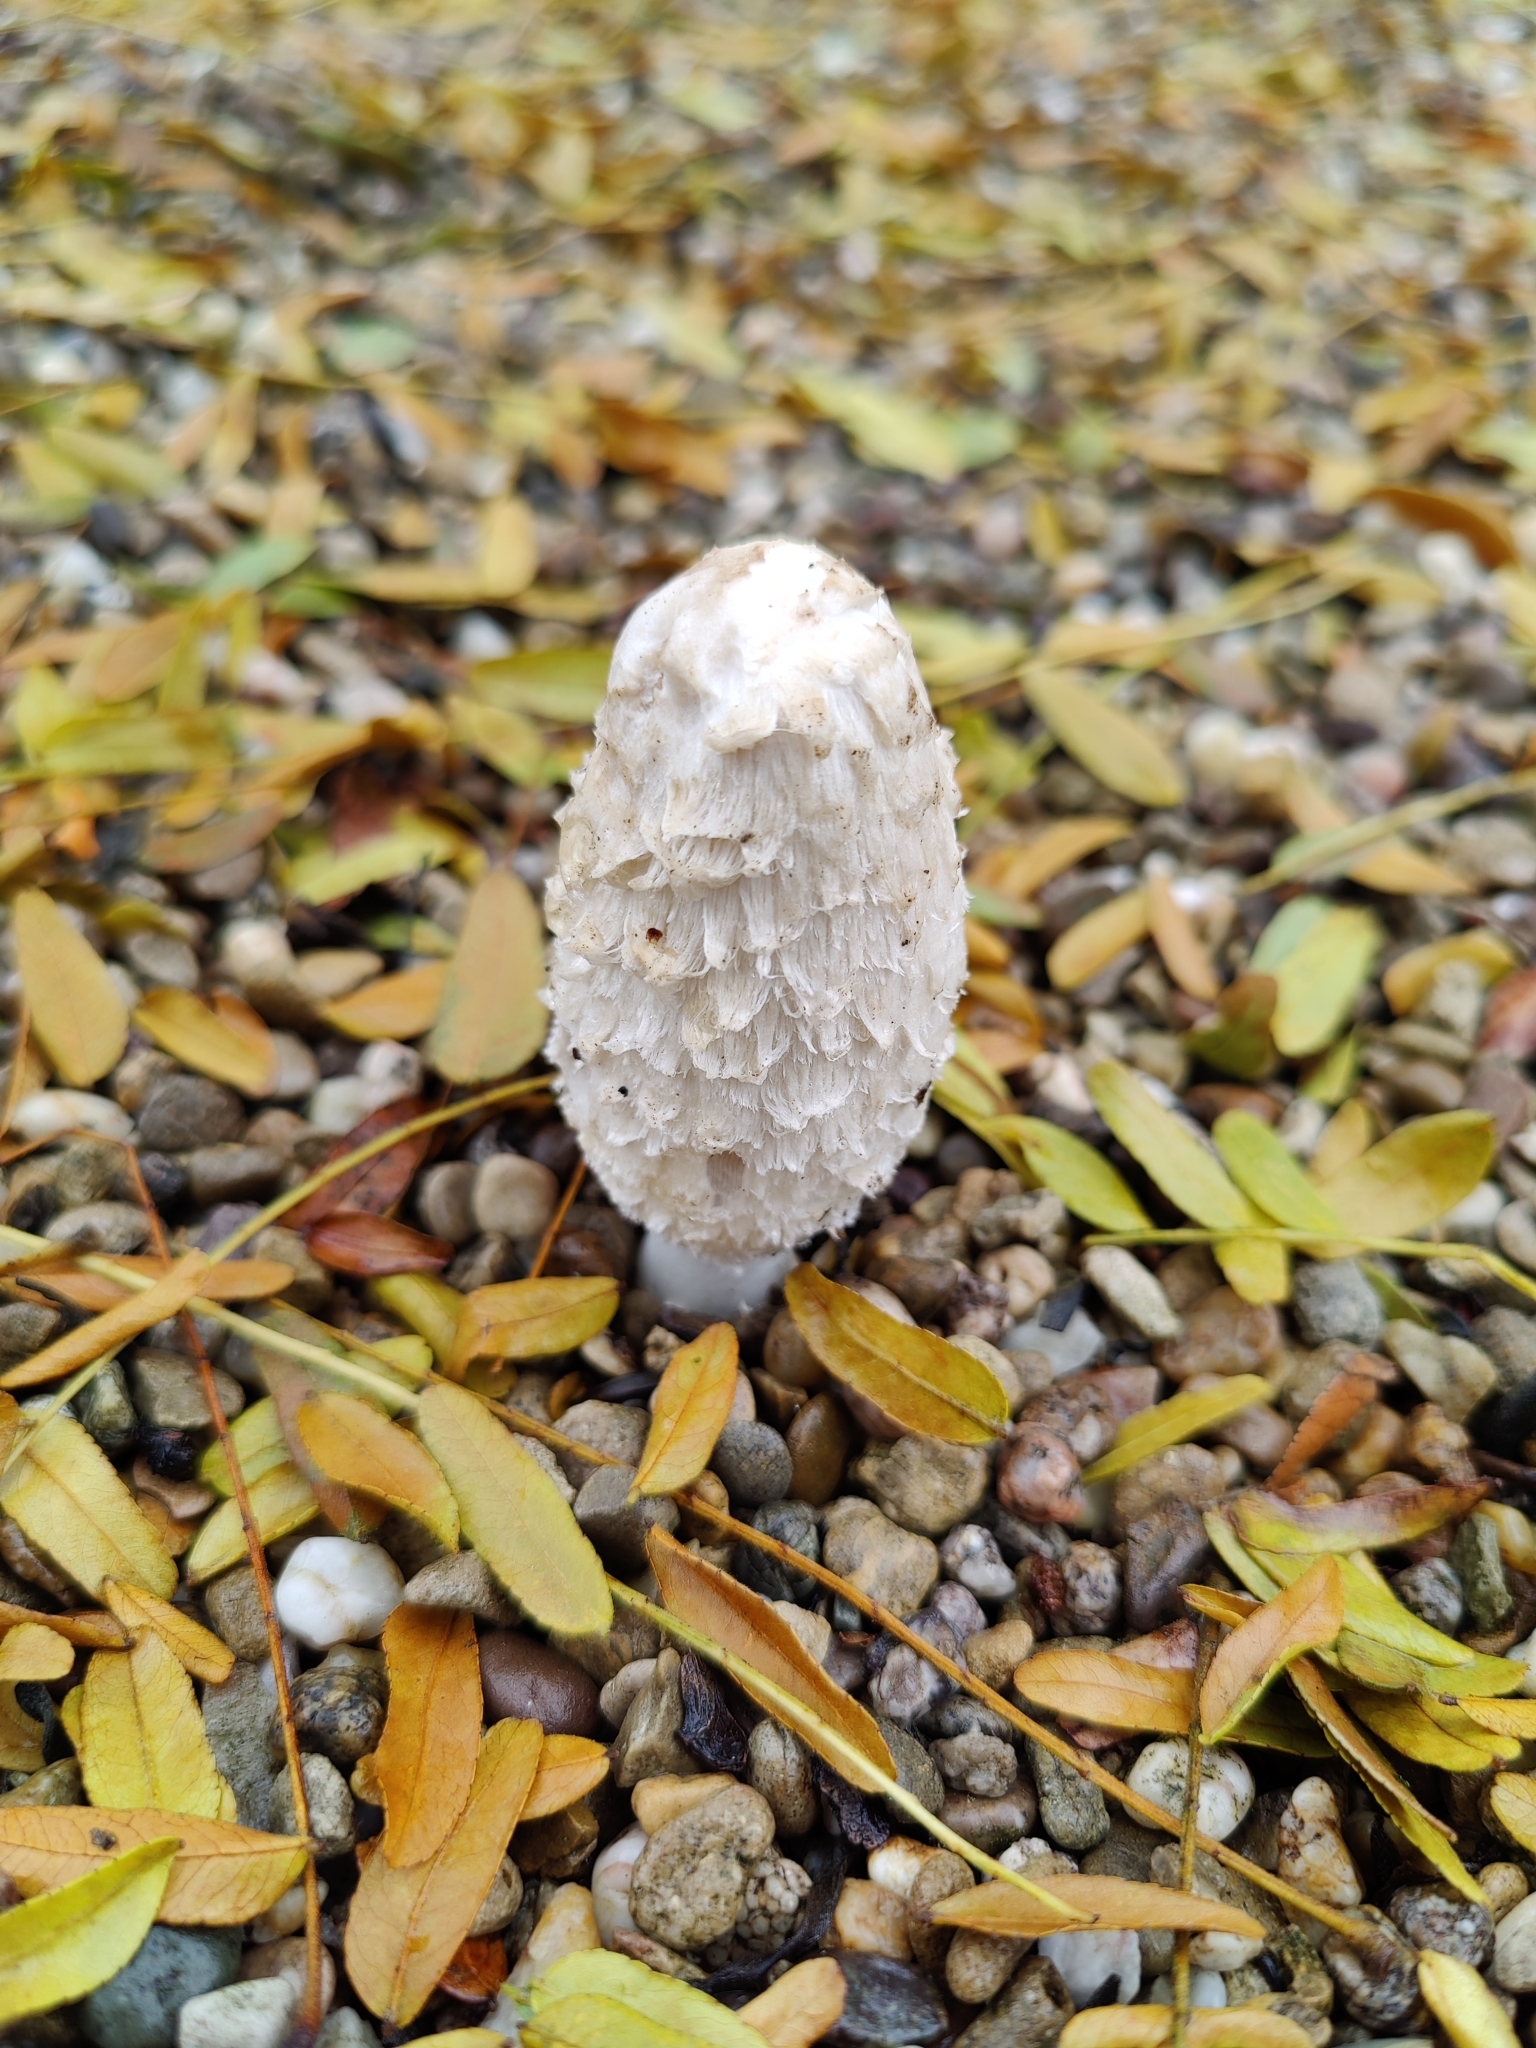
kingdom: Fungi
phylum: Basidiomycota
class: Agaricomycetes
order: Agaricales
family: Agaricaceae
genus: Coprinus
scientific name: Coprinus comatus
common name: Lawyer's wig
